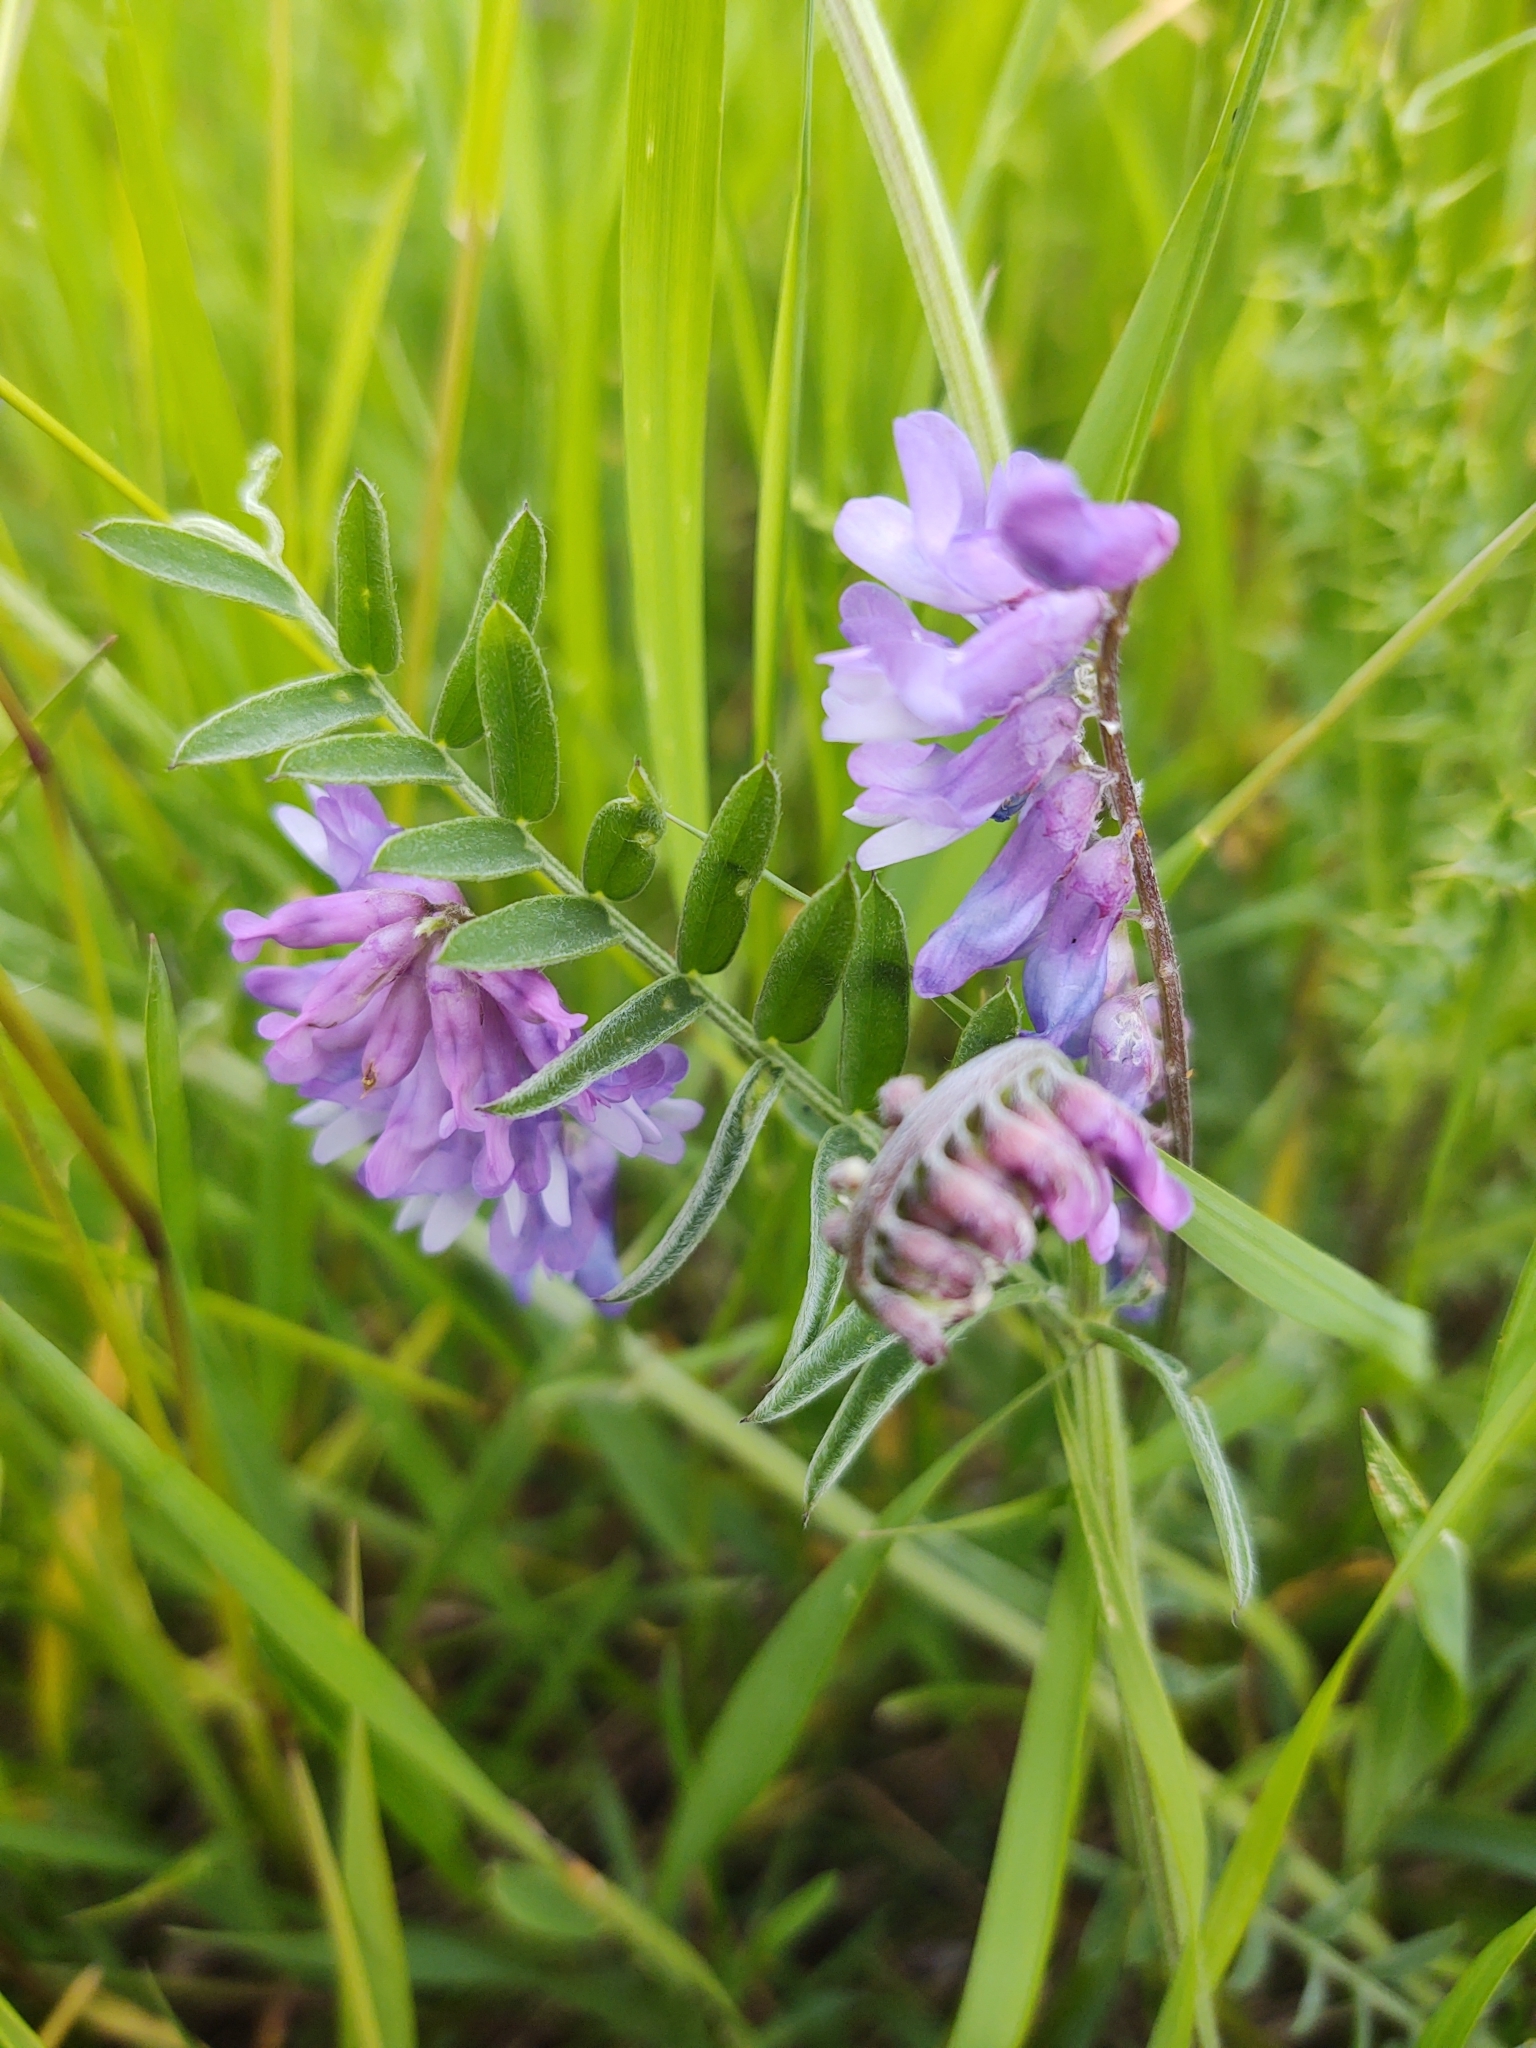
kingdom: Plantae
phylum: Tracheophyta
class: Magnoliopsida
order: Fabales
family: Fabaceae
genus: Vicia
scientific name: Vicia cracca
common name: Bird vetch
